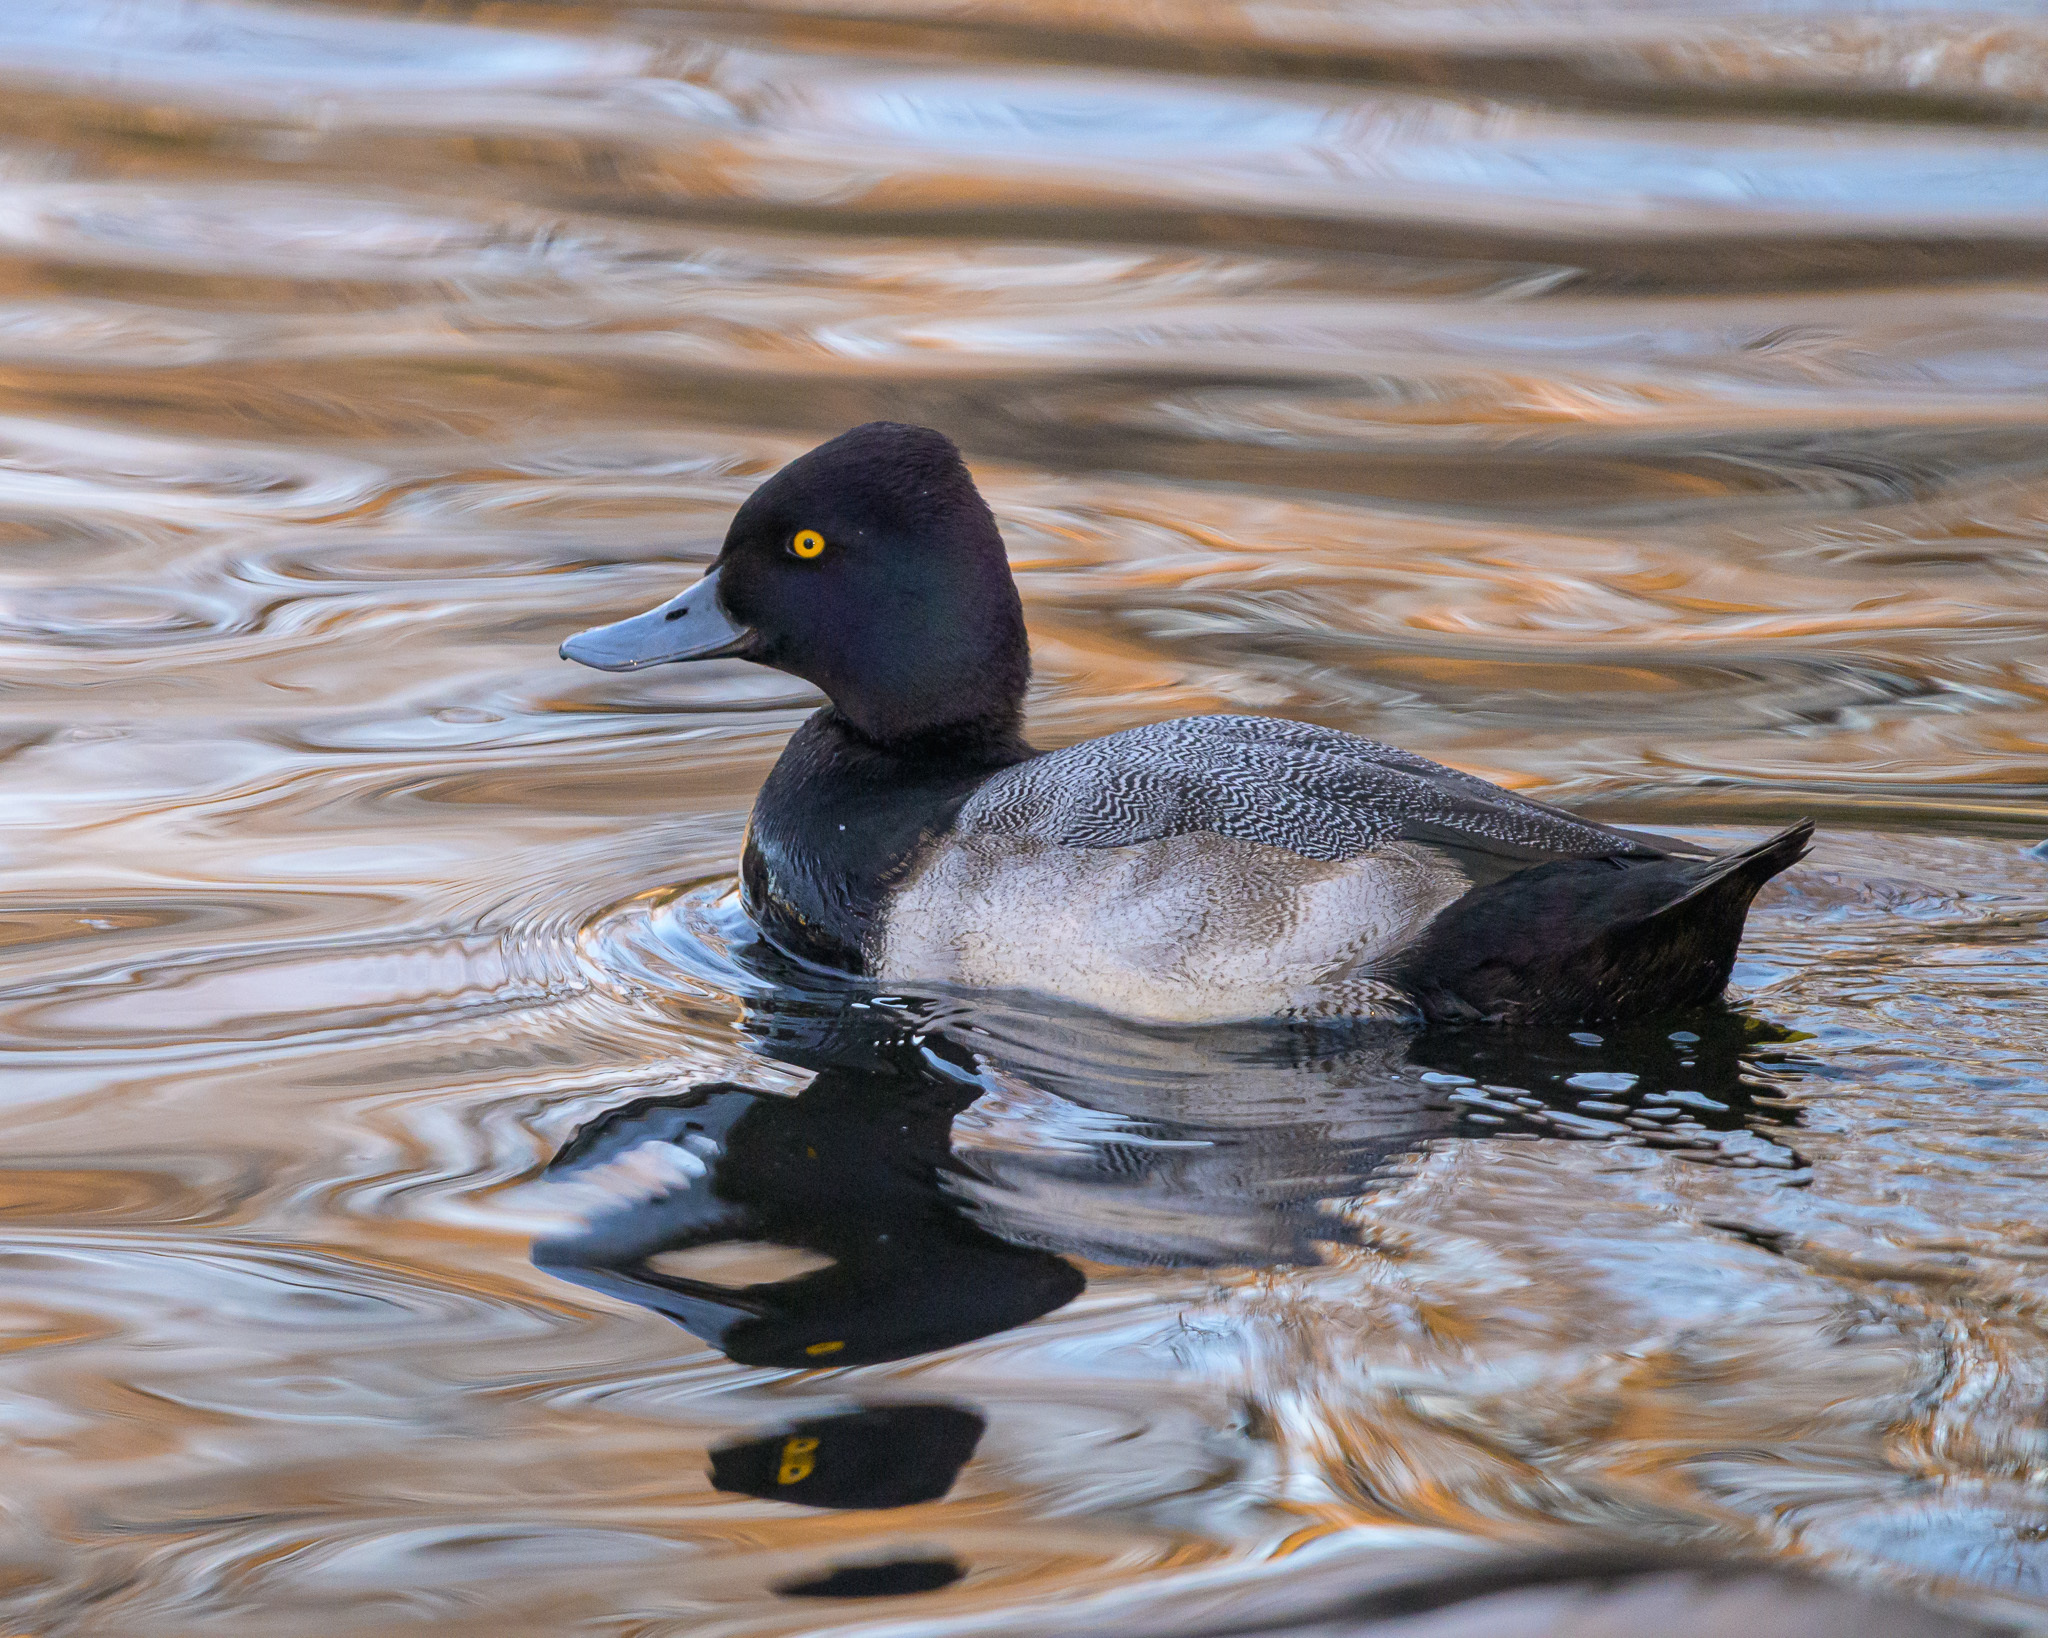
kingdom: Animalia
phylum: Chordata
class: Aves
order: Anseriformes
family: Anatidae
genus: Aythya
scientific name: Aythya affinis
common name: Lesser scaup
